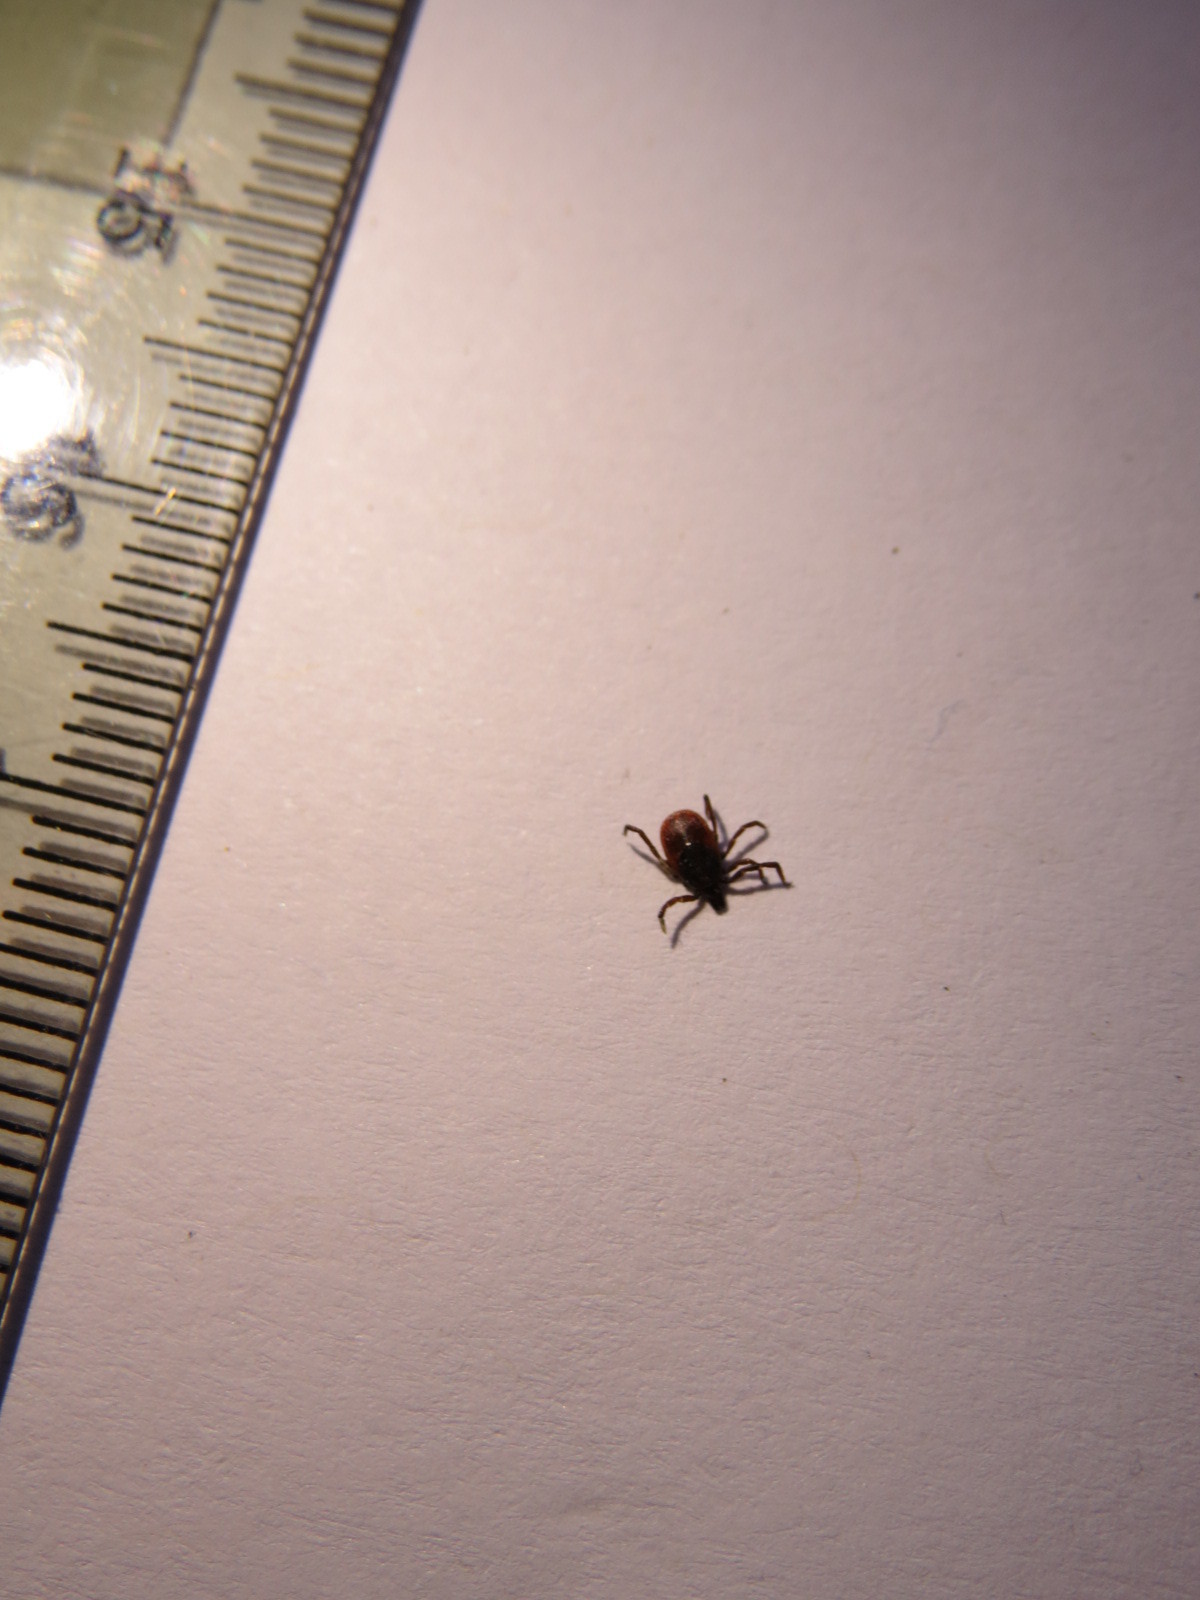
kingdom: Animalia
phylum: Arthropoda
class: Arachnida
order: Ixodida
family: Ixodidae
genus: Ixodes
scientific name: Ixodes pacificus
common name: California black-legged tick
